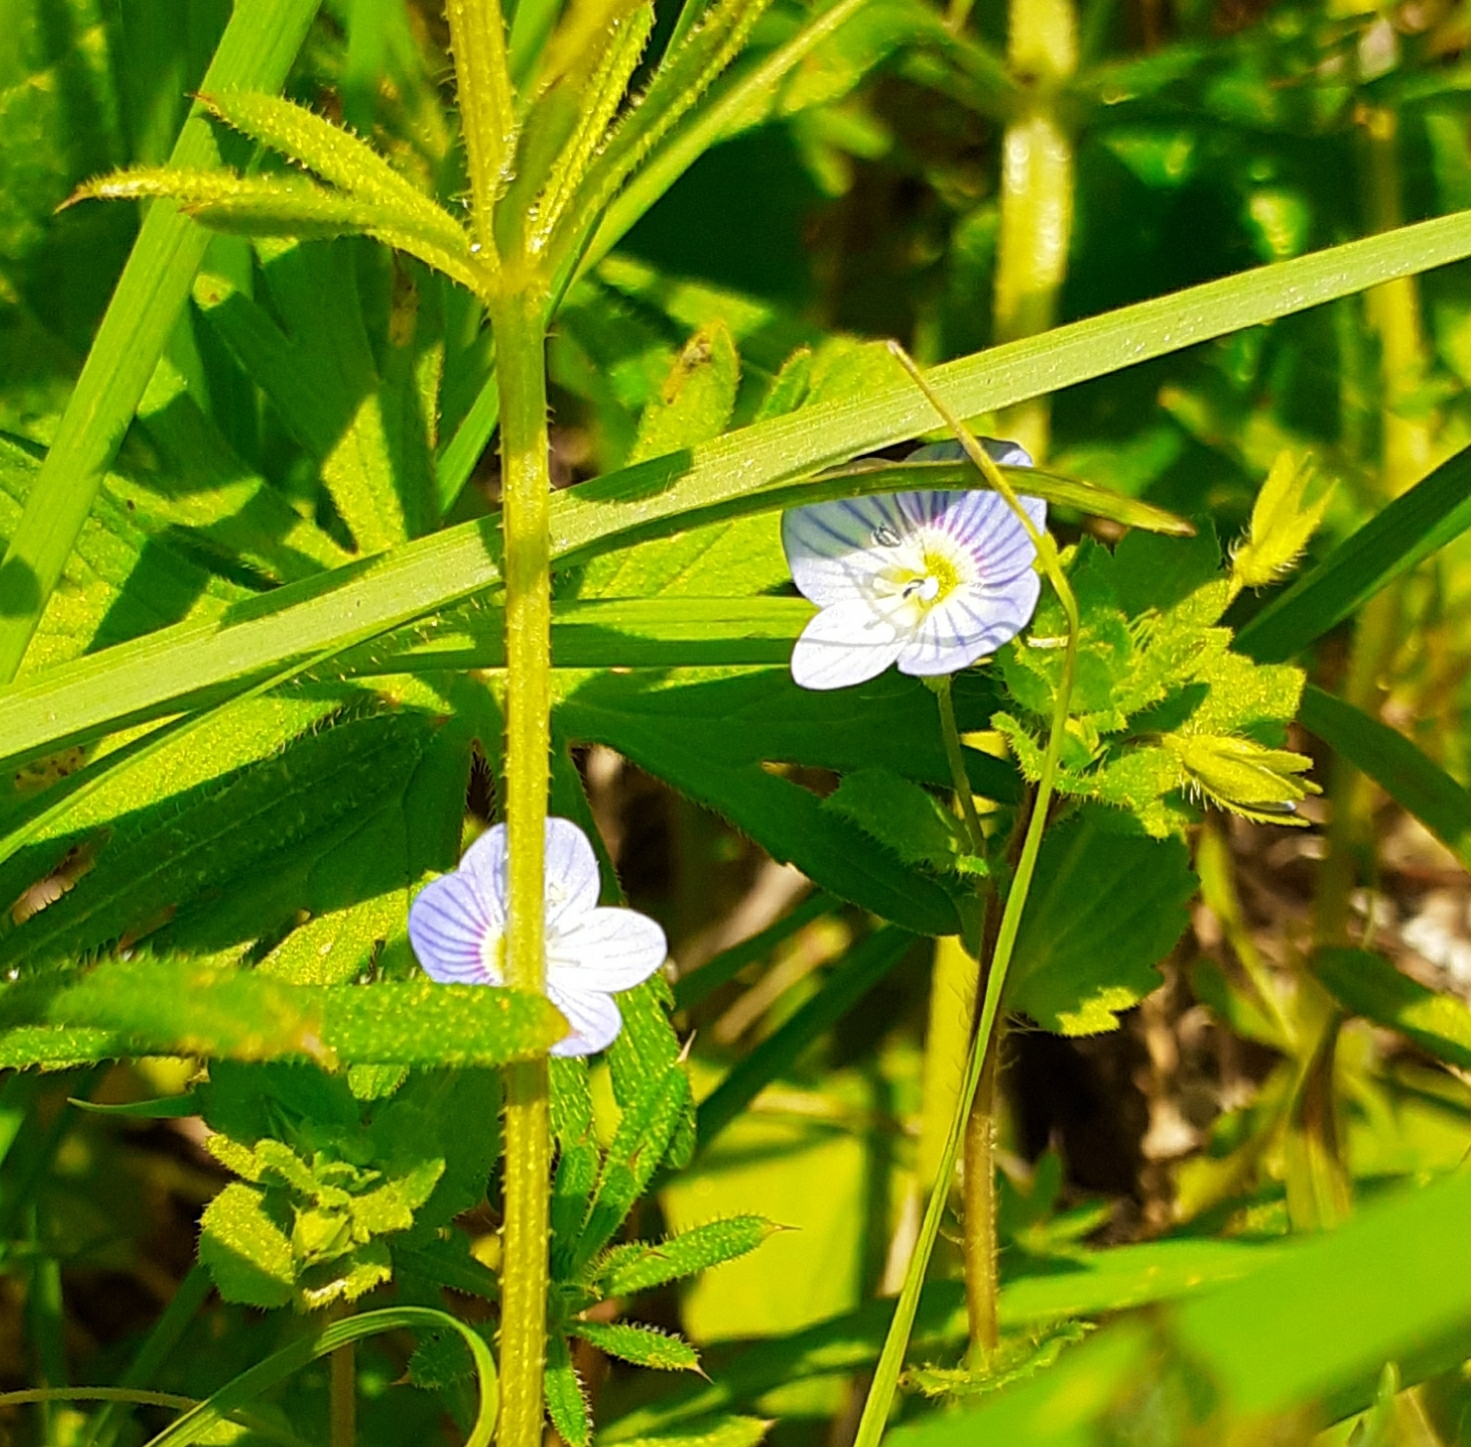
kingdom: Plantae
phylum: Tracheophyta
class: Magnoliopsida
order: Lamiales
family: Plantaginaceae
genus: Veronica
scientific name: Veronica persica
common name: Common field-speedwell
